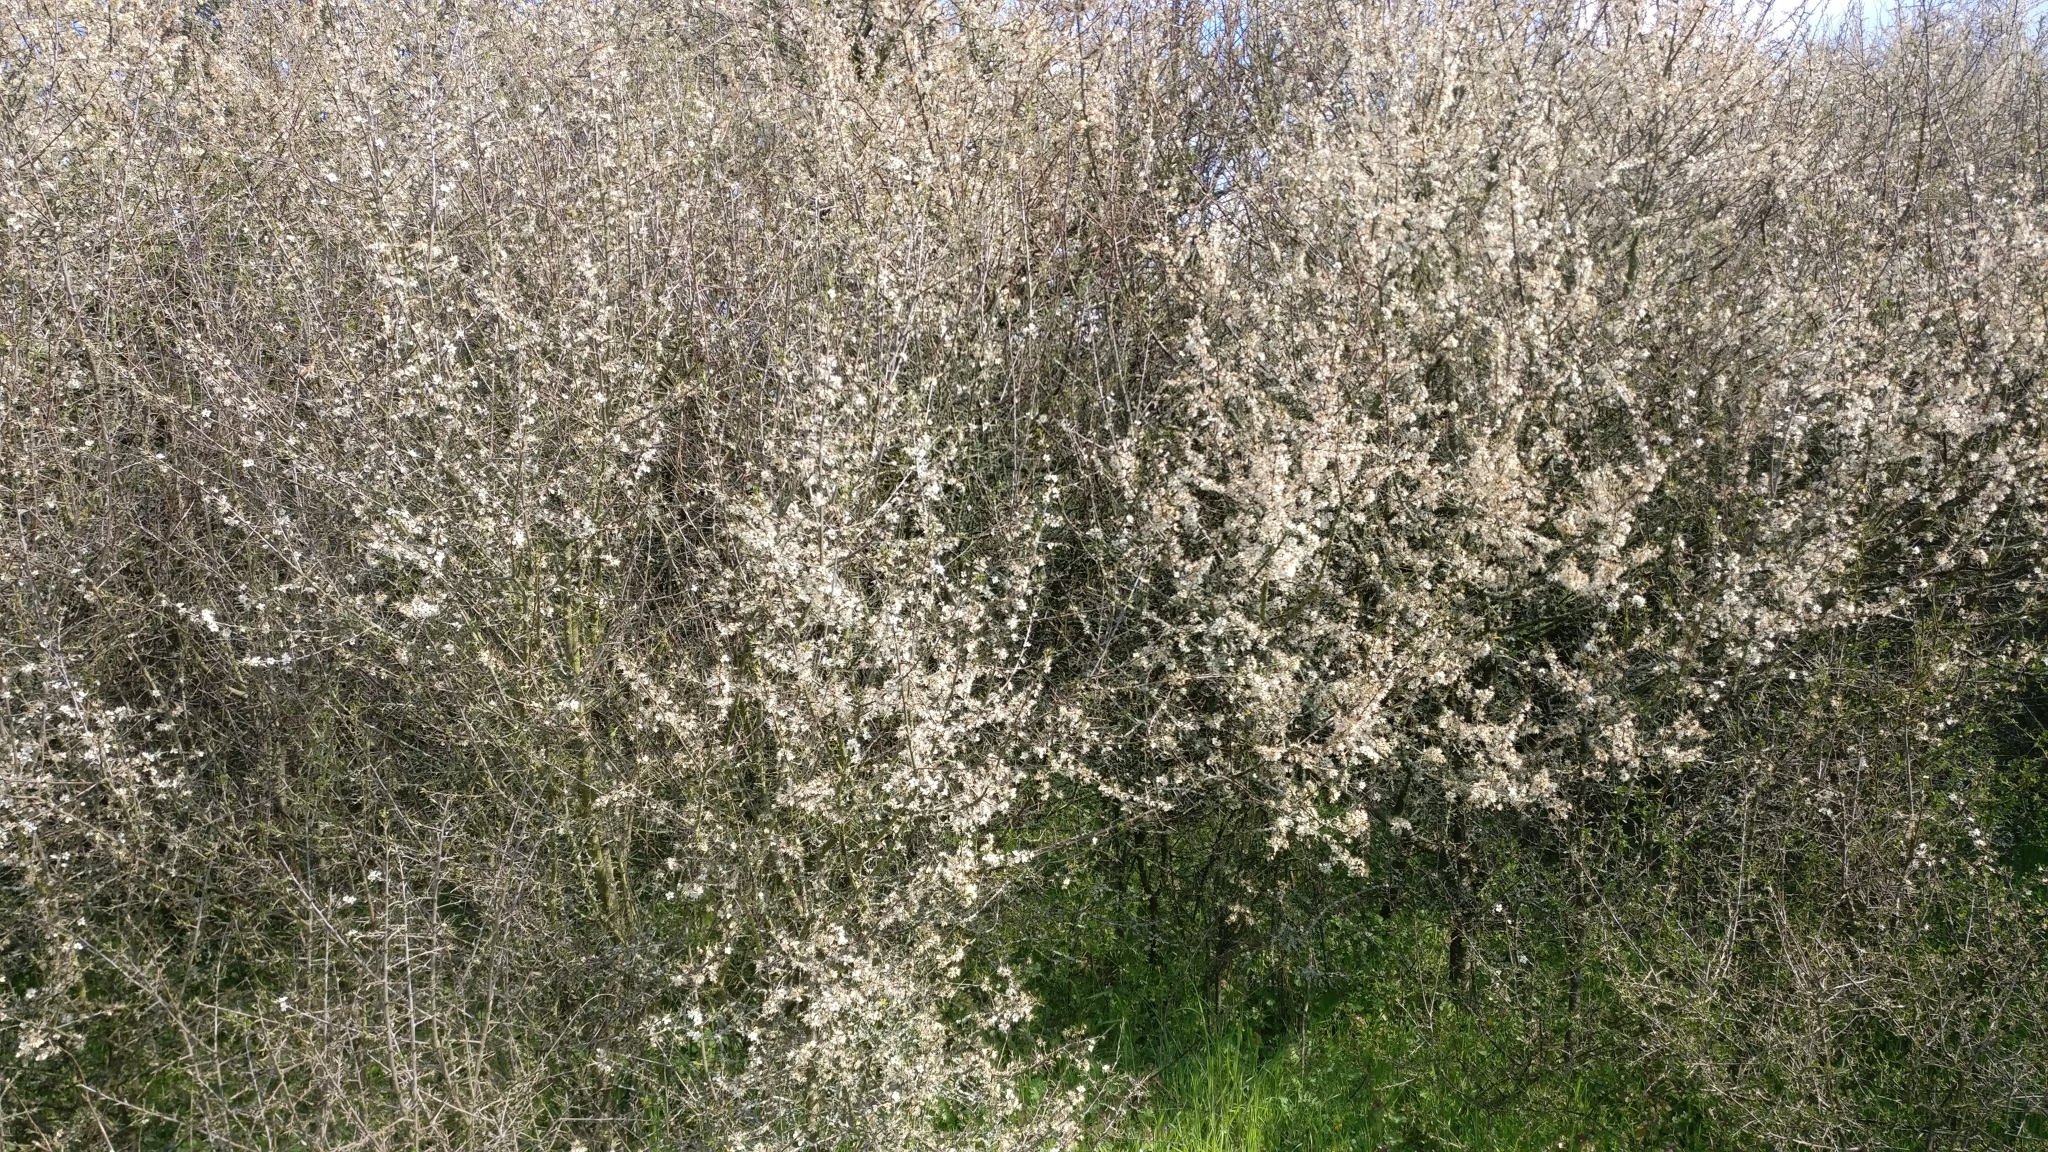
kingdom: Plantae
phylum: Tracheophyta
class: Magnoliopsida
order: Rosales
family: Rosaceae
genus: Prunus
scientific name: Prunus spinosa
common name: Blackthorn
